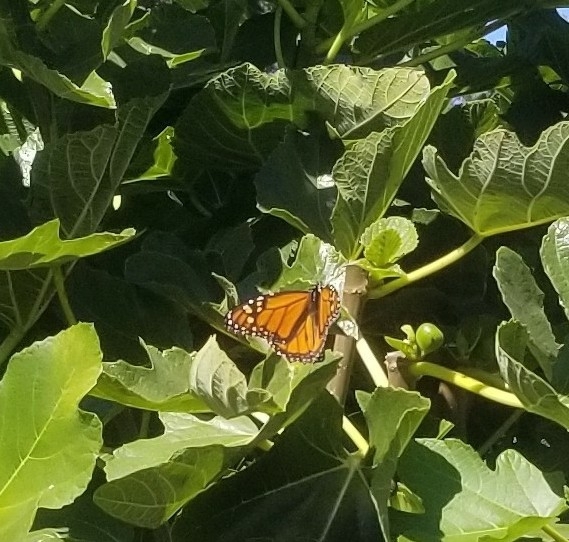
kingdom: Animalia
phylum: Arthropoda
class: Insecta
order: Lepidoptera
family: Nymphalidae
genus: Danaus
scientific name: Danaus plexippus
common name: Monarch
